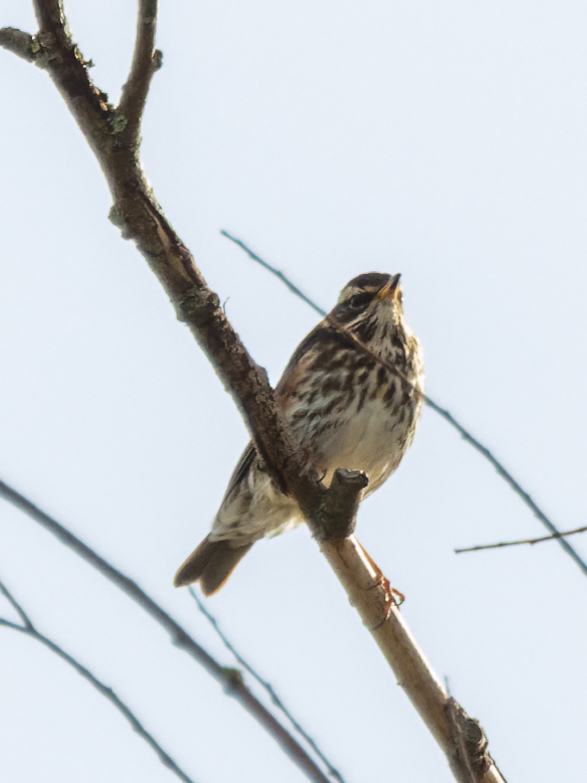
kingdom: Animalia
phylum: Chordata
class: Aves
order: Passeriformes
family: Turdidae
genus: Turdus
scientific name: Turdus iliacus
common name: Redwing
